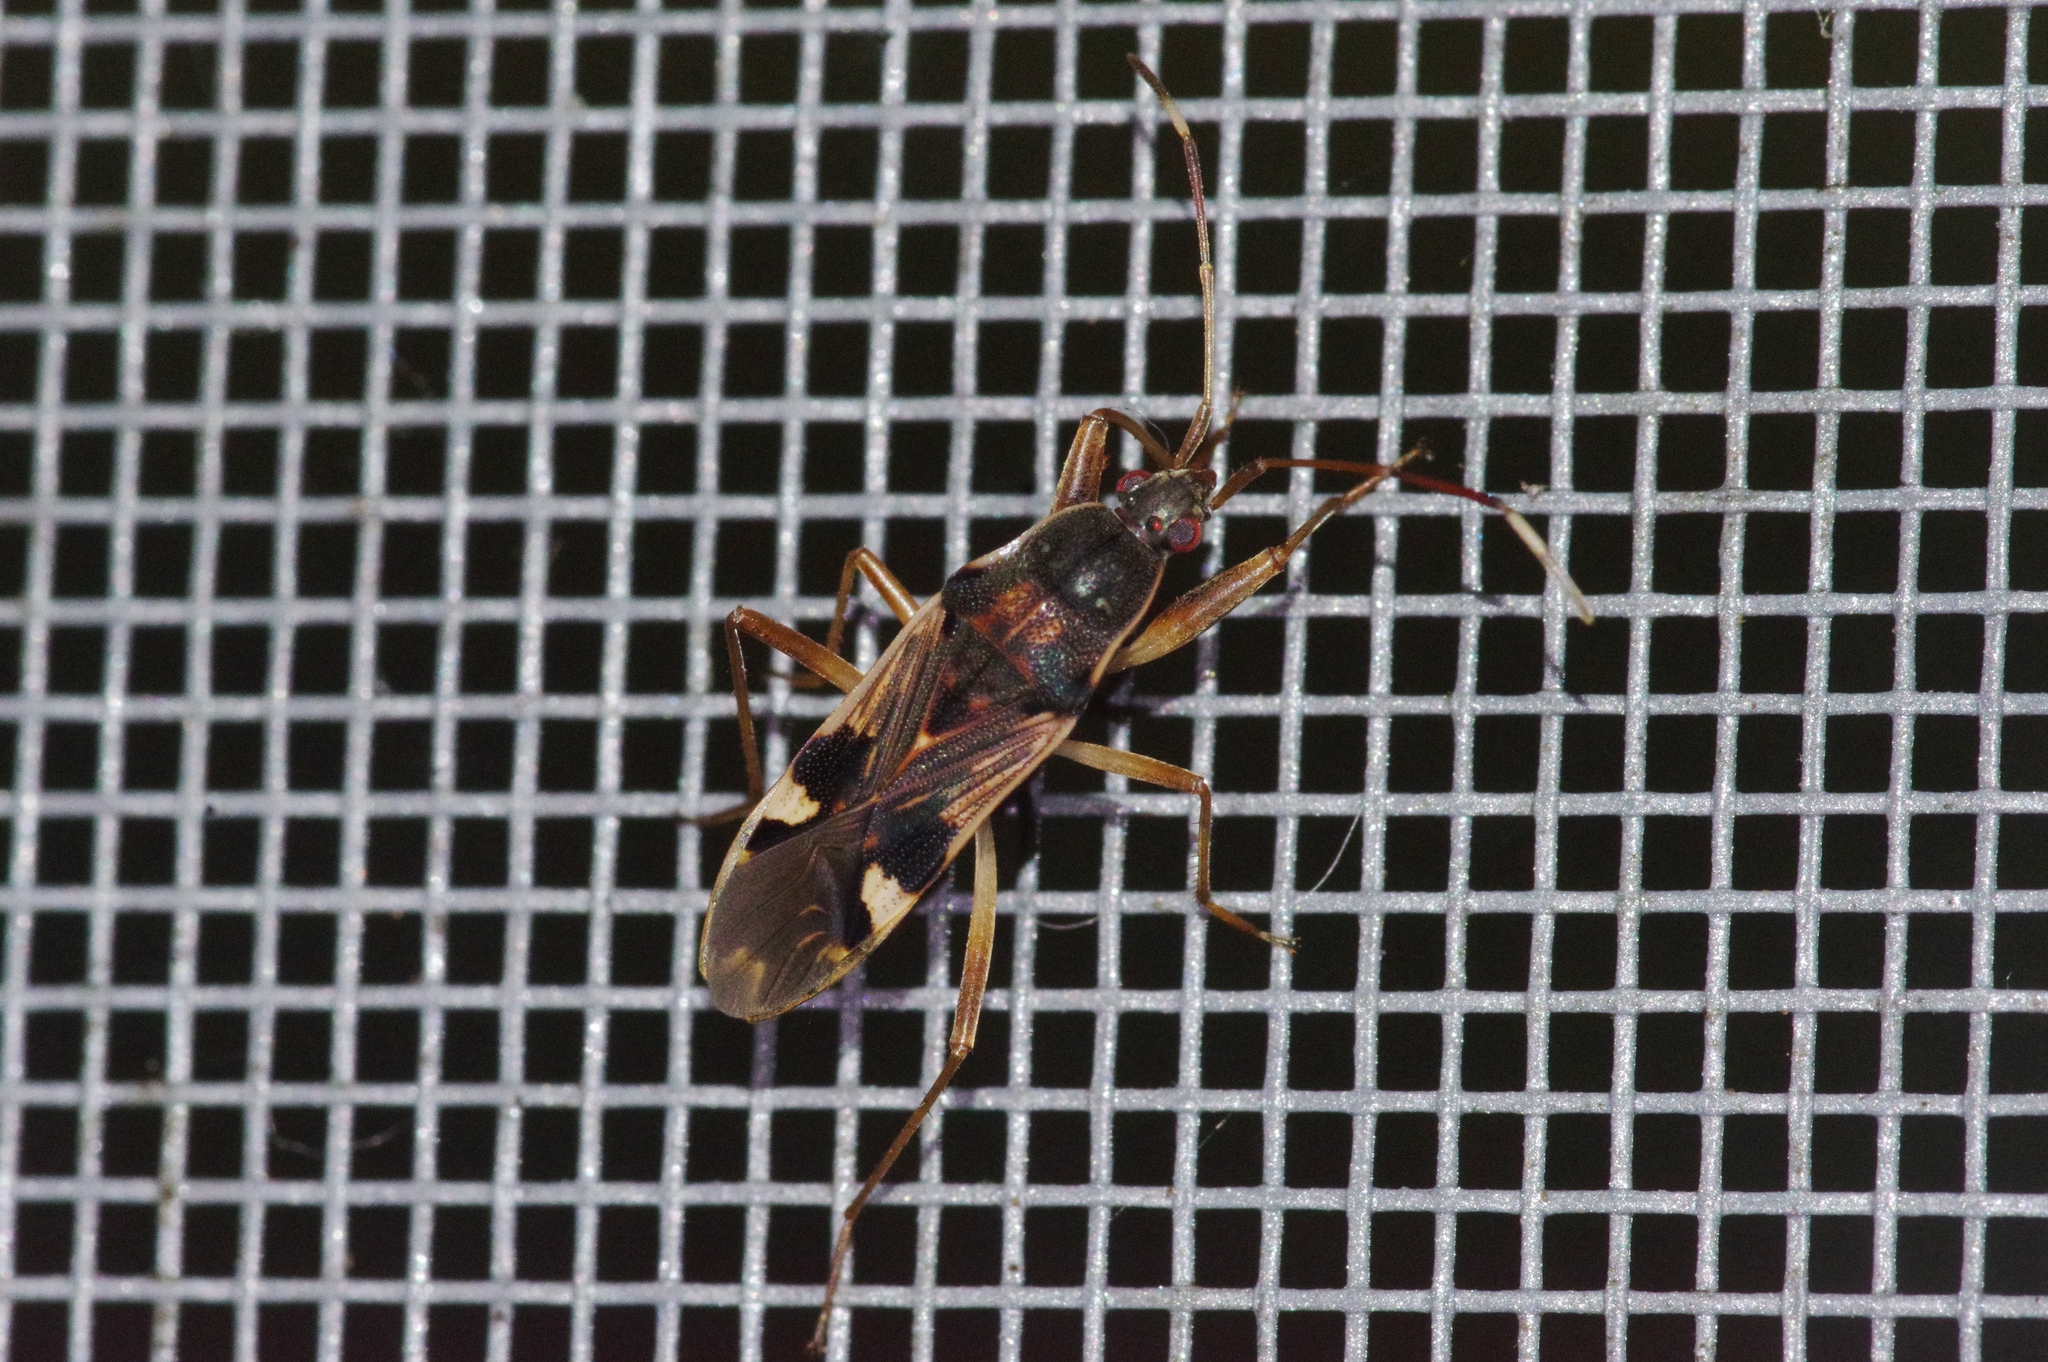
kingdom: Animalia
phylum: Arthropoda
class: Insecta
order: Hemiptera
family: Rhyparochromidae
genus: Dieuches
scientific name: Dieuches parvimaculatus
